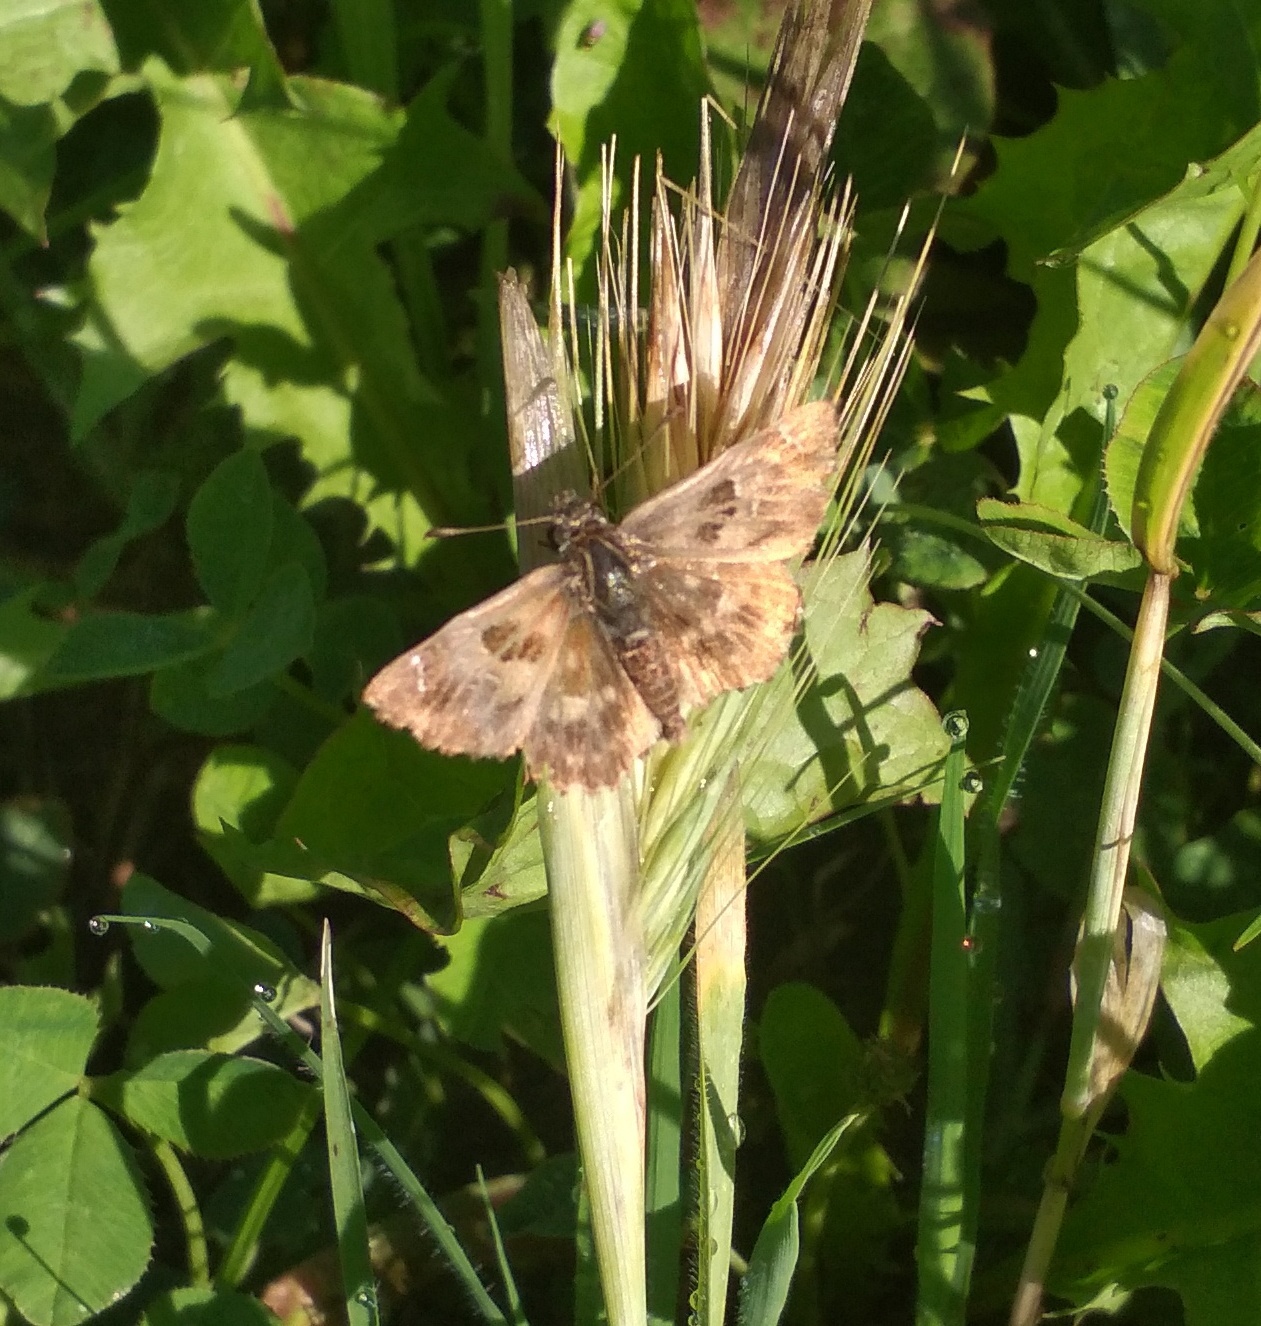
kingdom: Animalia
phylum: Arthropoda
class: Insecta
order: Lepidoptera
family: Hesperiidae
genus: Carcharodus
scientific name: Carcharodus alceae
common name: Mallow skipper
